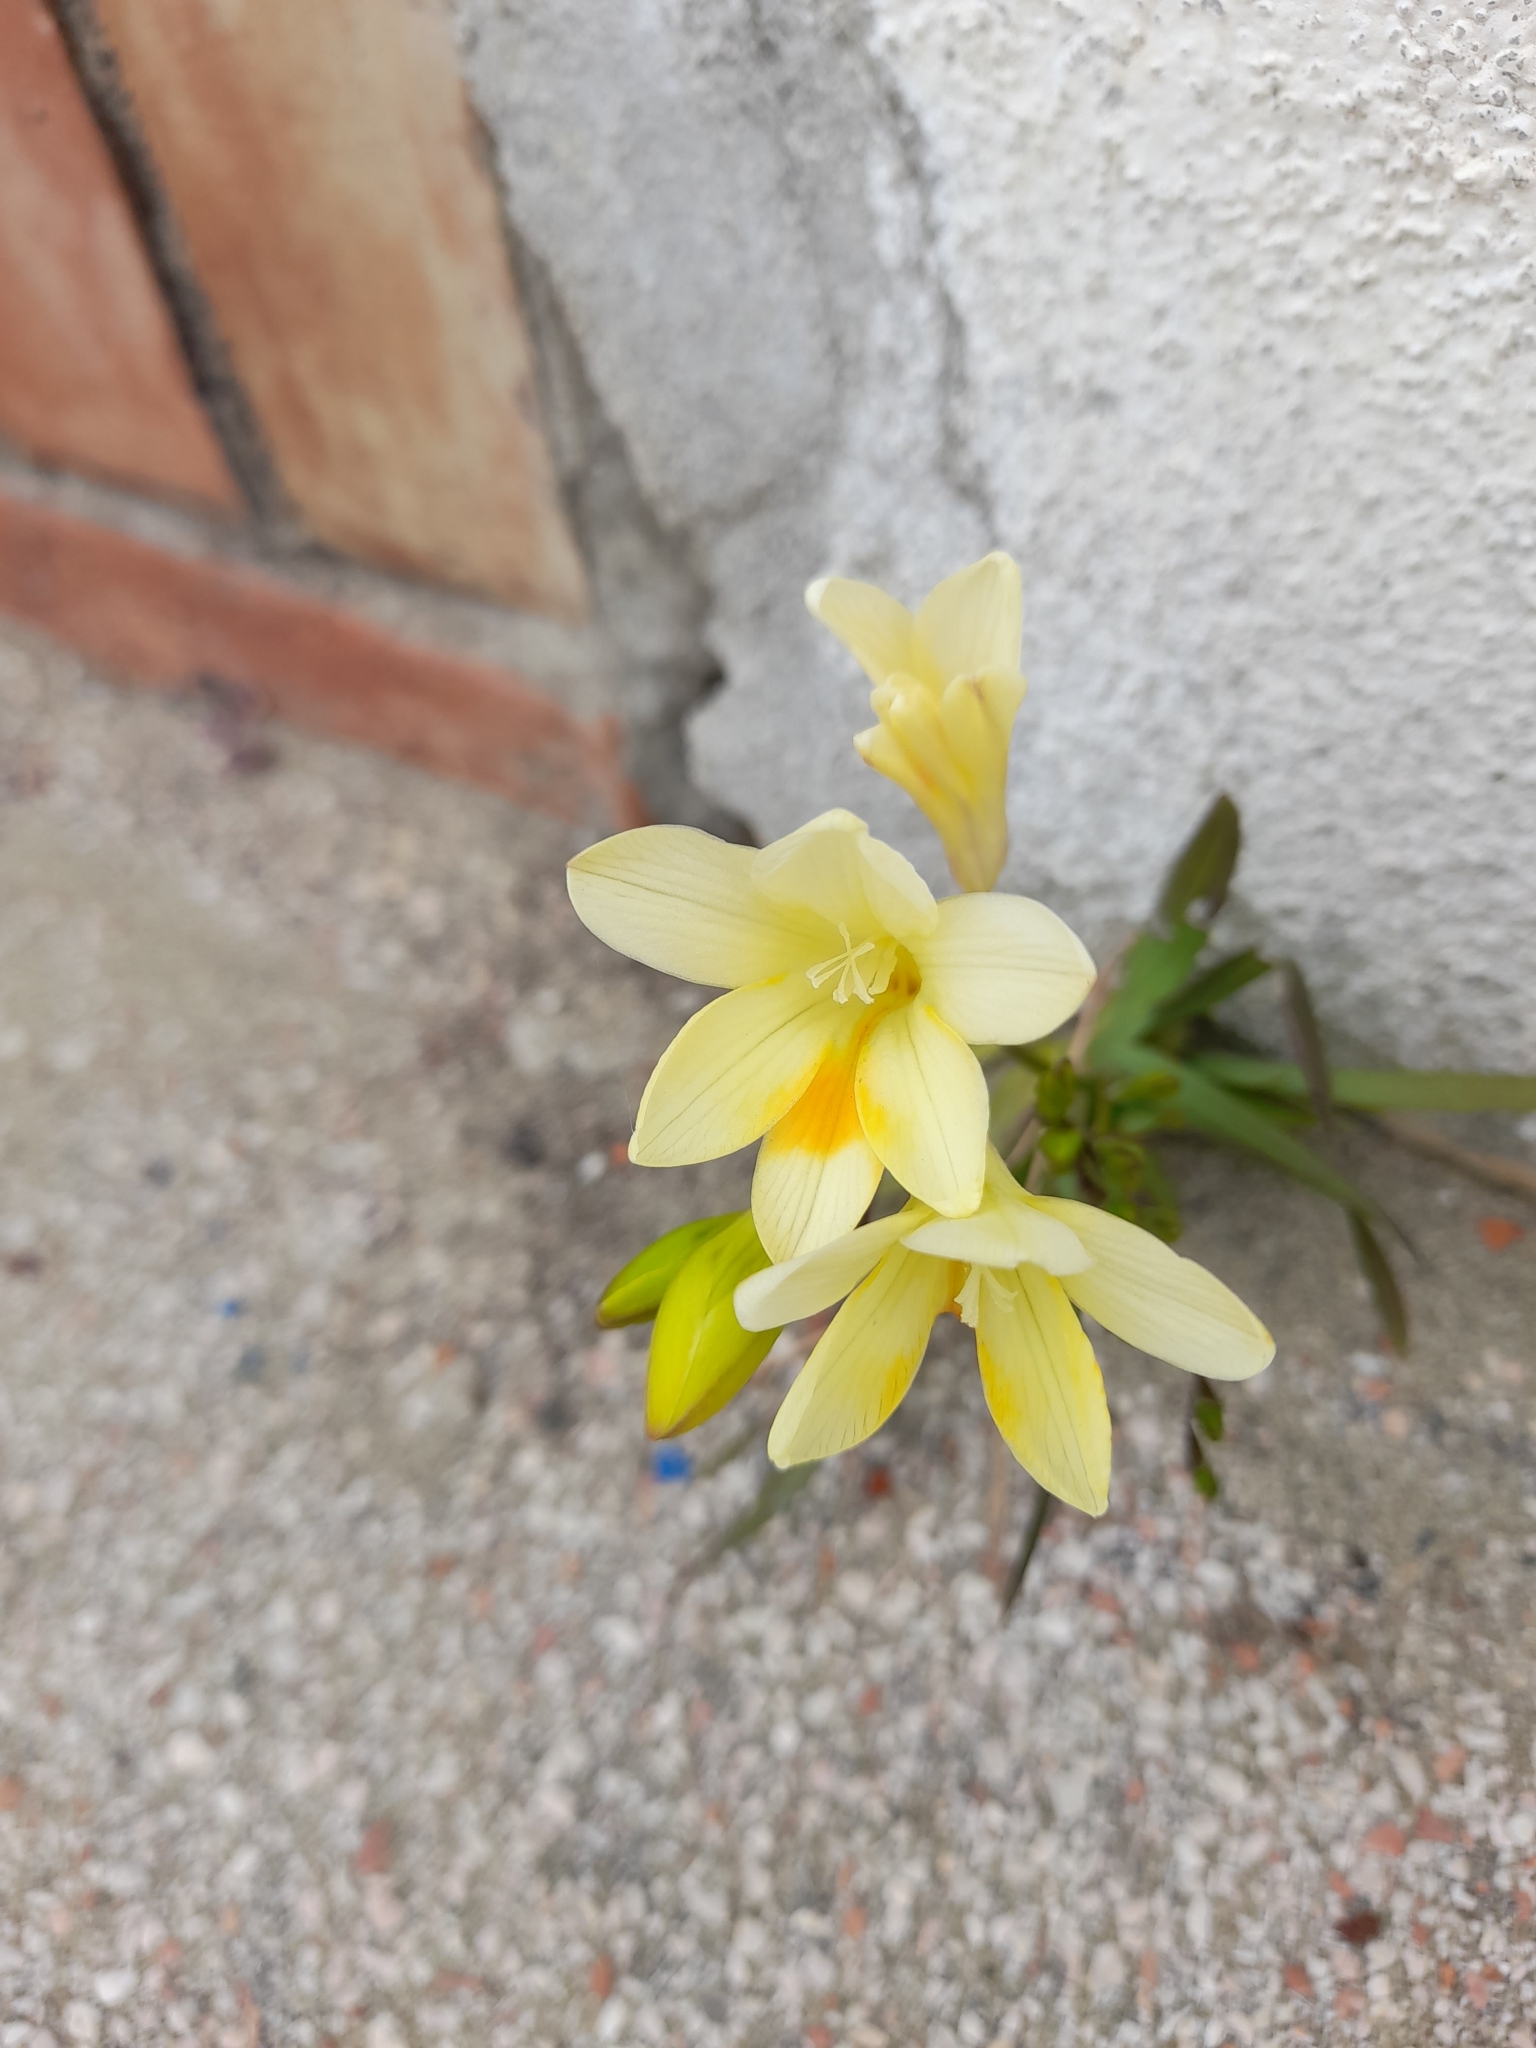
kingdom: Plantae
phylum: Tracheophyta
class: Liliopsida
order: Asparagales
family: Iridaceae
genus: Freesia
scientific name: Freesia leichtlinii
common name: Freesia
